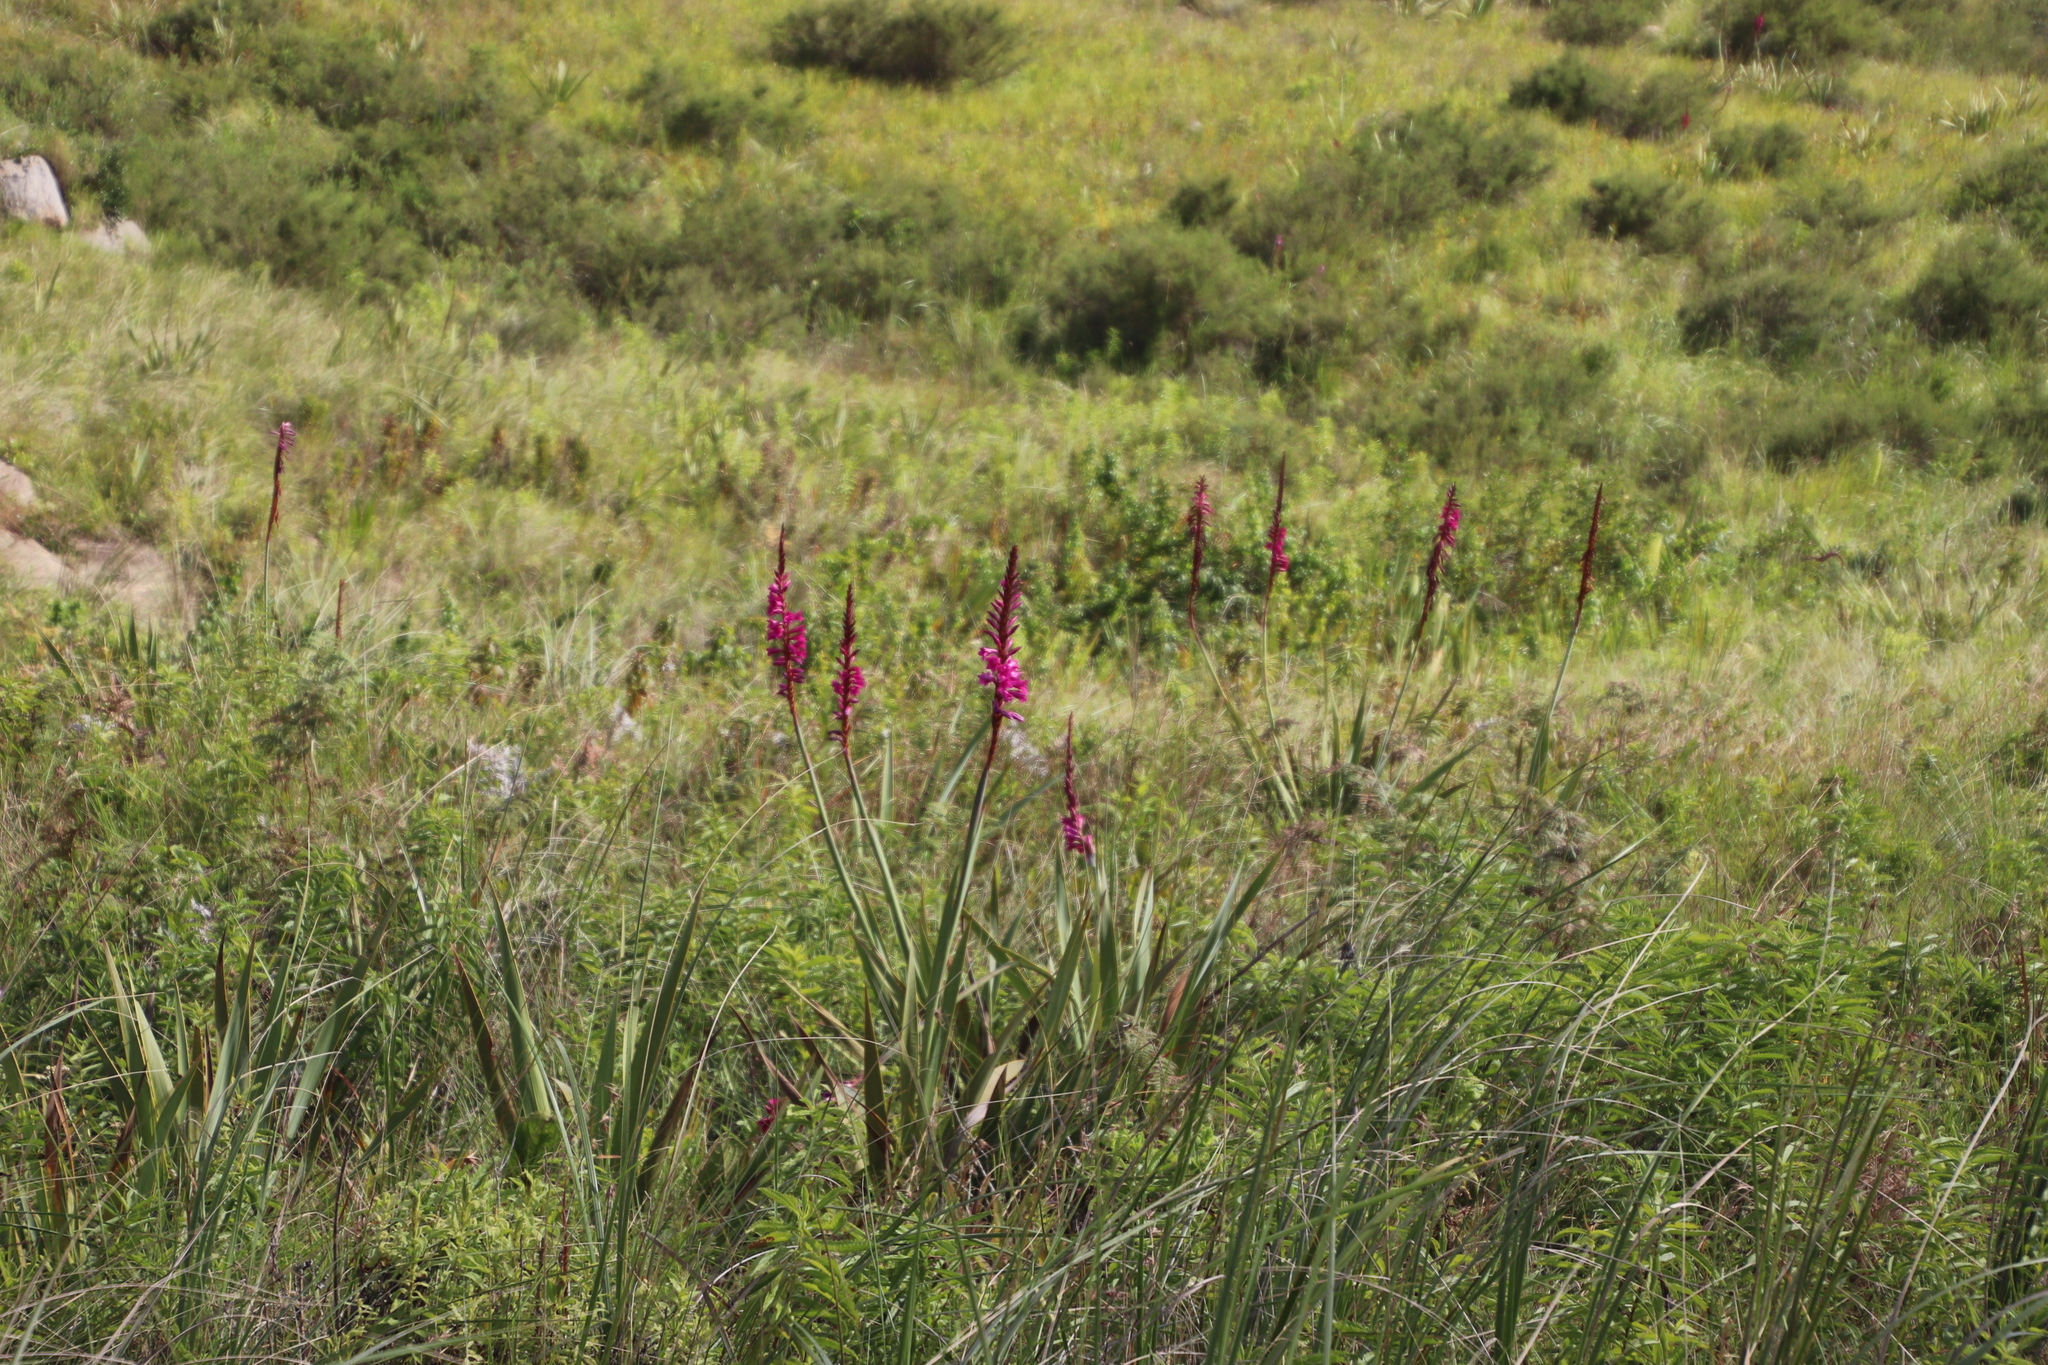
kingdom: Plantae
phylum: Tracheophyta
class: Liliopsida
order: Asparagales
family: Iridaceae
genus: Watsonia
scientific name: Watsonia pulchra
